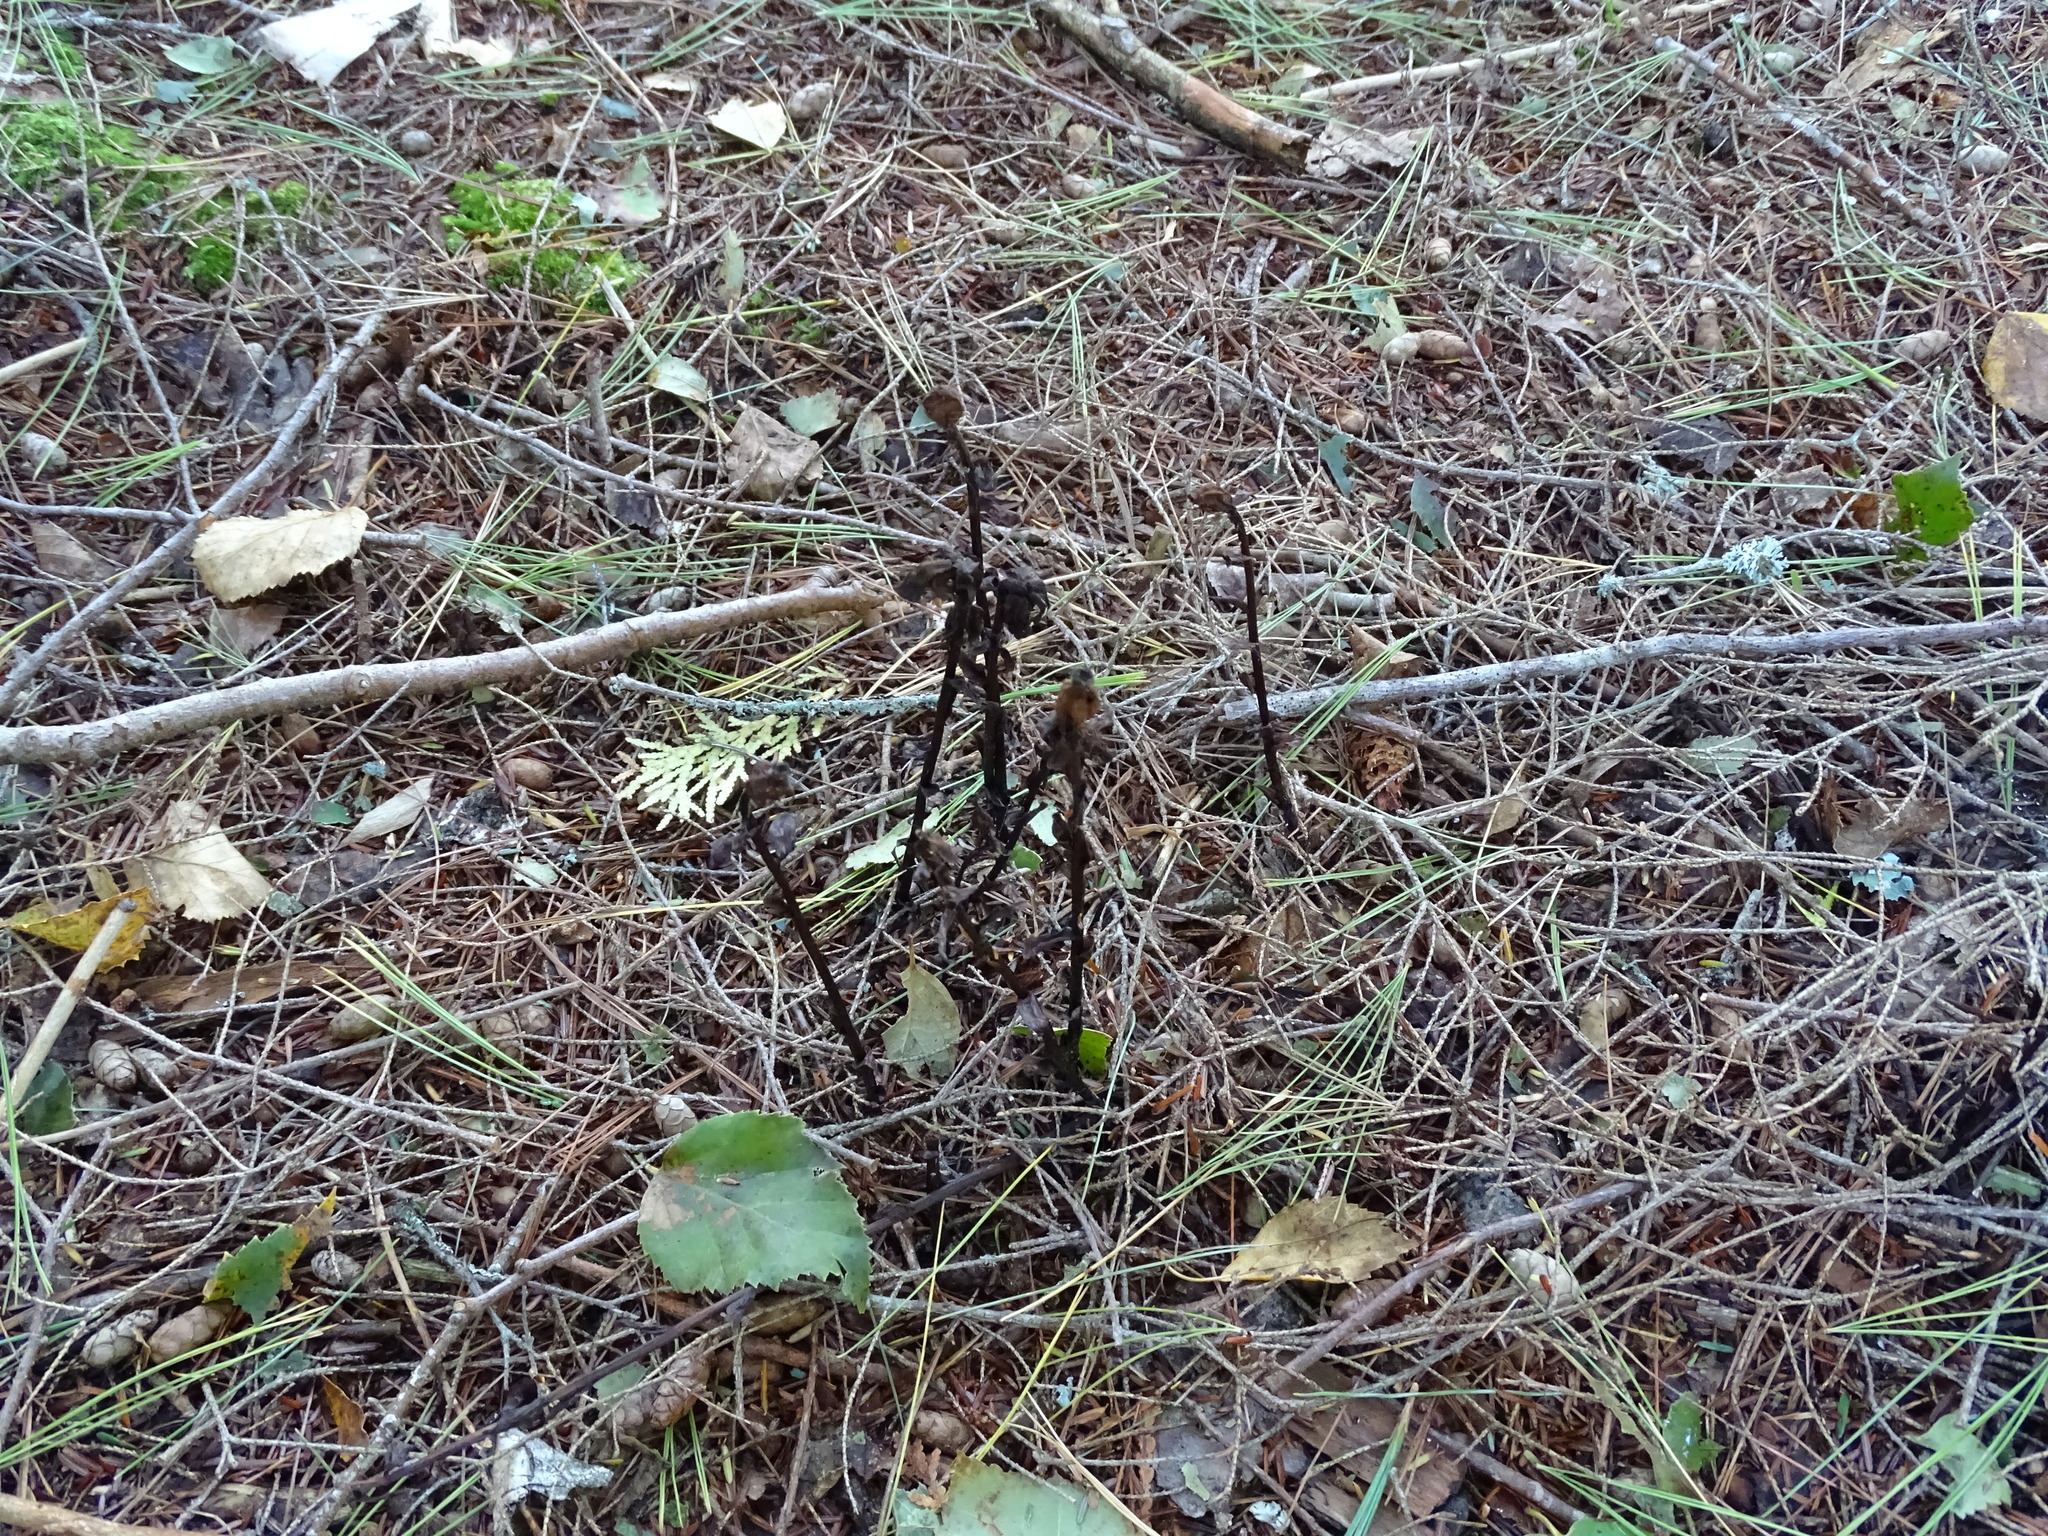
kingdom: Plantae
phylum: Tracheophyta
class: Magnoliopsida
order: Ericales
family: Ericaceae
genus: Monotropa
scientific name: Monotropa uniflora
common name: Convulsion root
